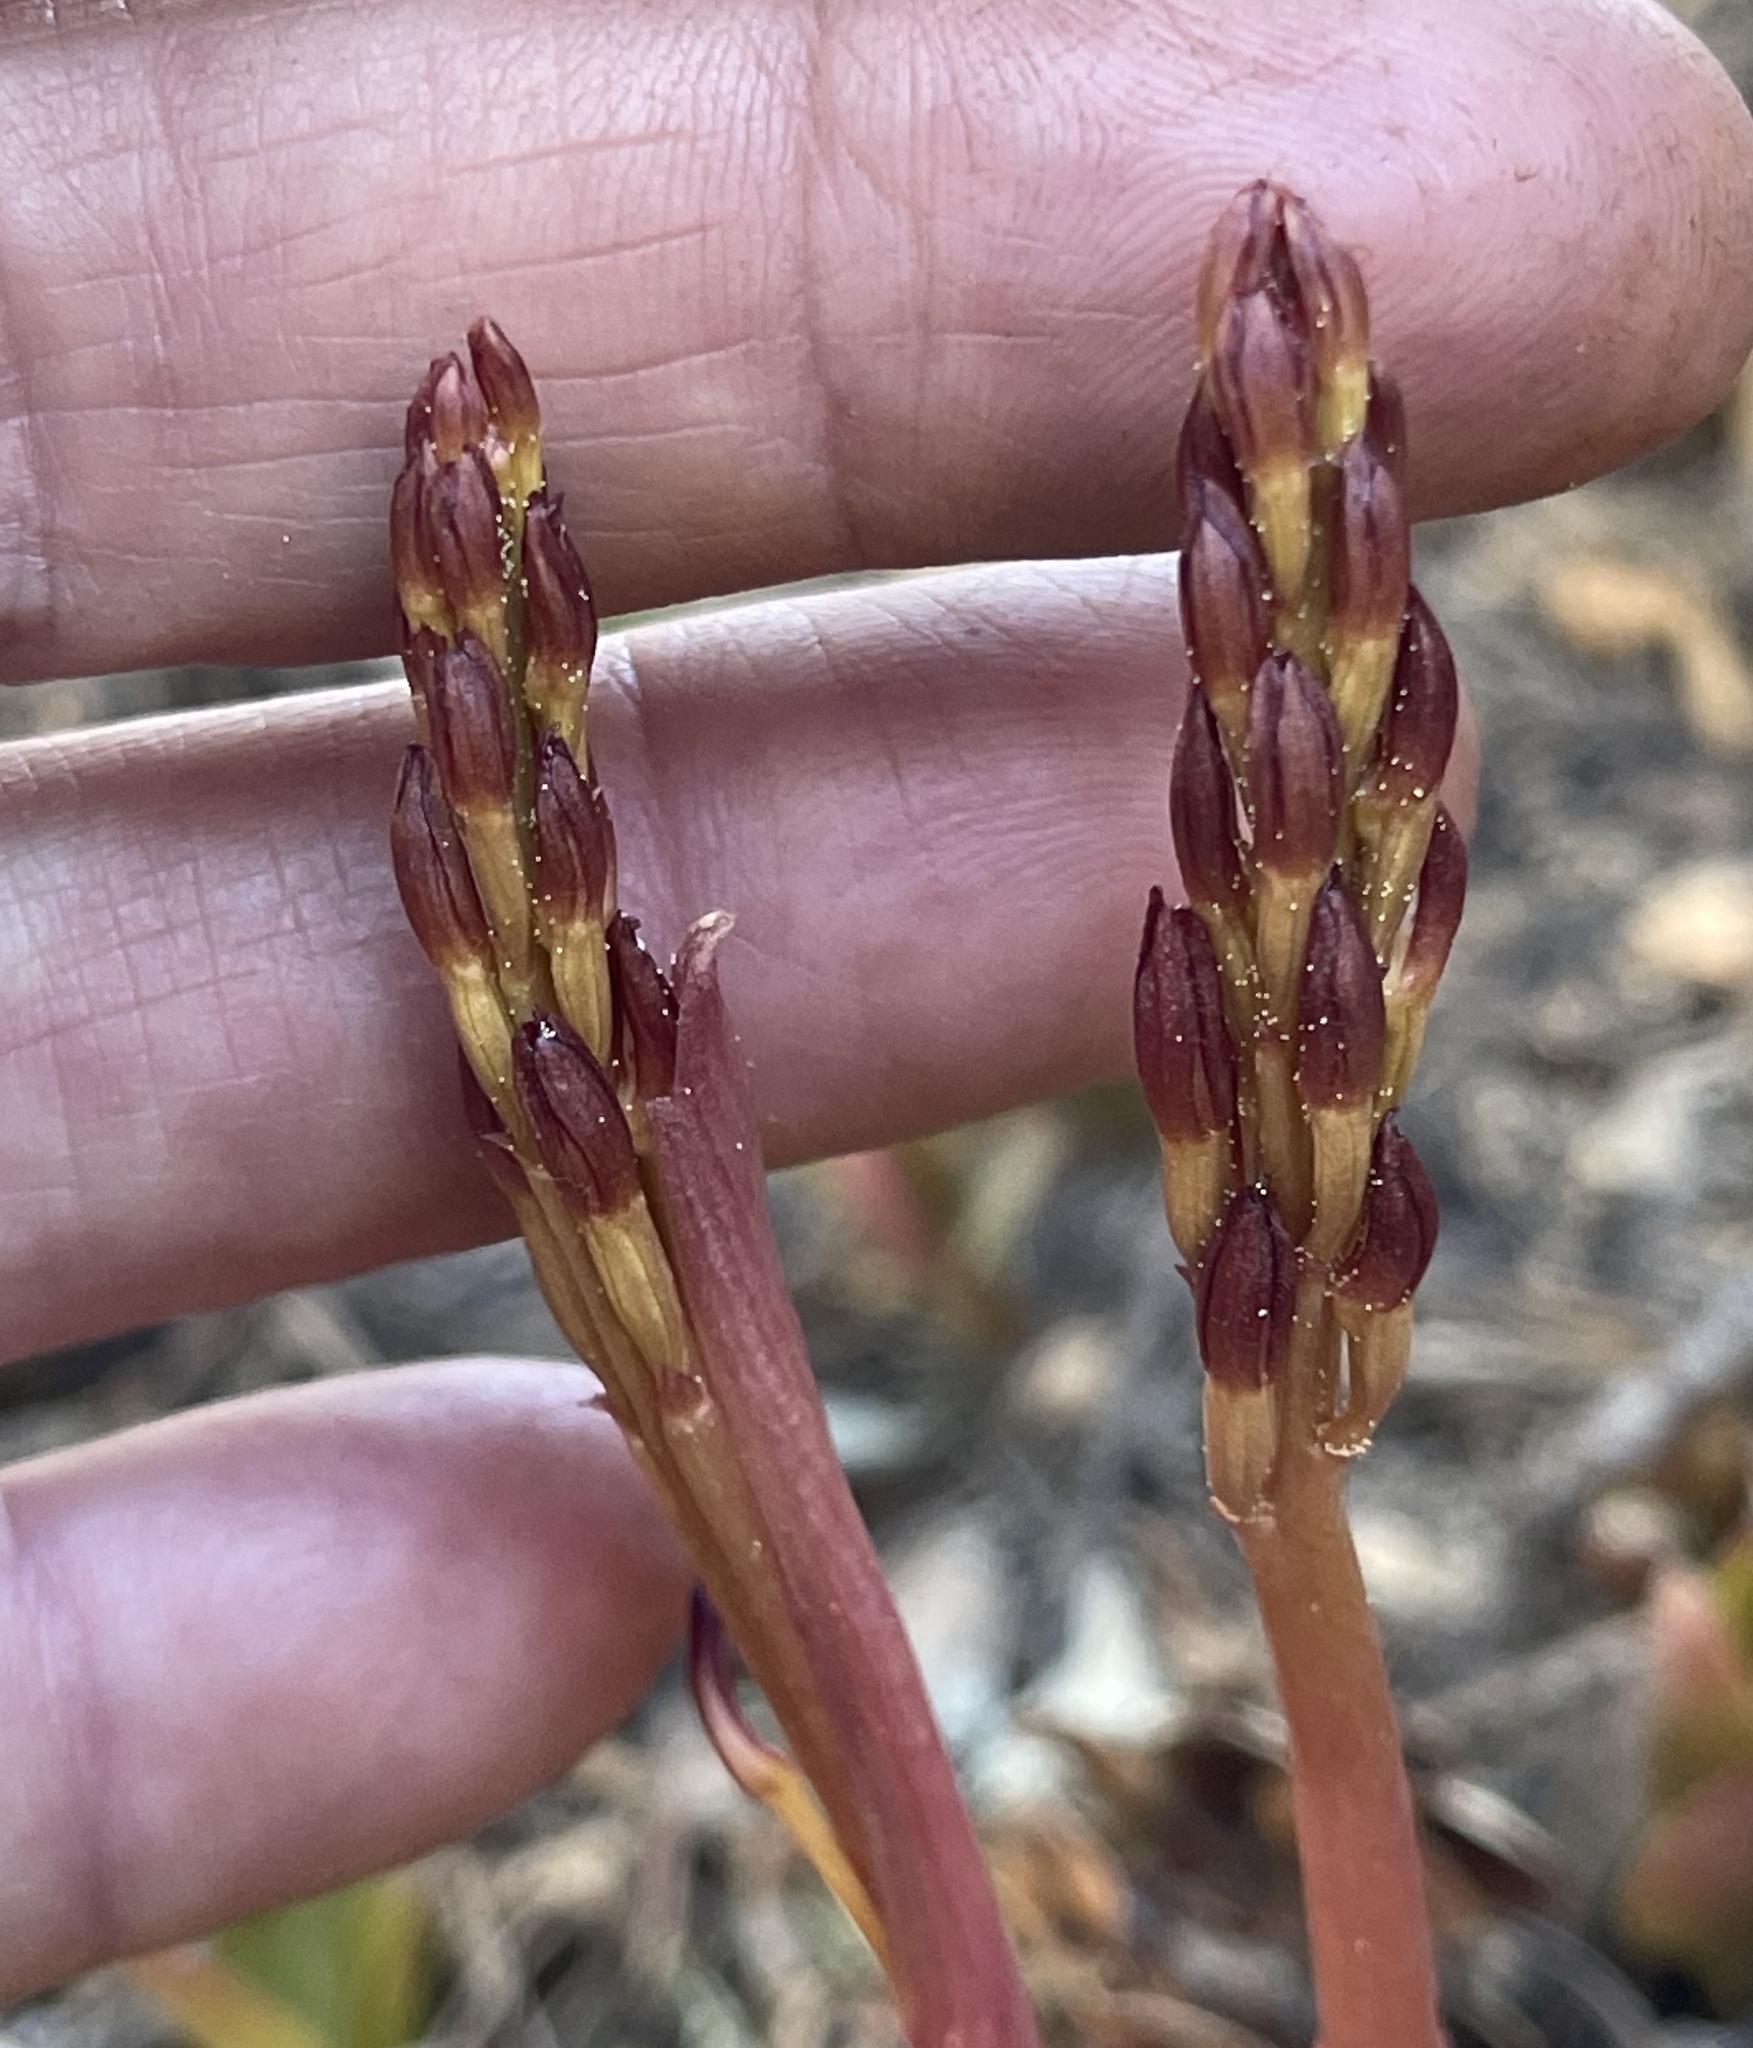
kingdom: Plantae
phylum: Tracheophyta
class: Liliopsida
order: Asparagales
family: Orchidaceae
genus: Corallorhiza
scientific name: Corallorhiza maculata
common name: Spotted coralroot
